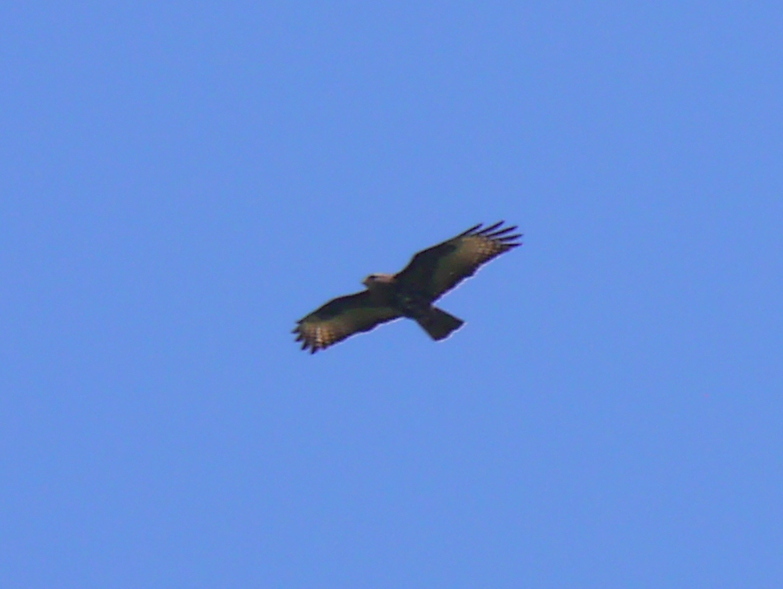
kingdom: Animalia
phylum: Chordata
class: Aves
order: Accipitriformes
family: Accipitridae
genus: Buteo
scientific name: Buteo buteo
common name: Common buzzard
